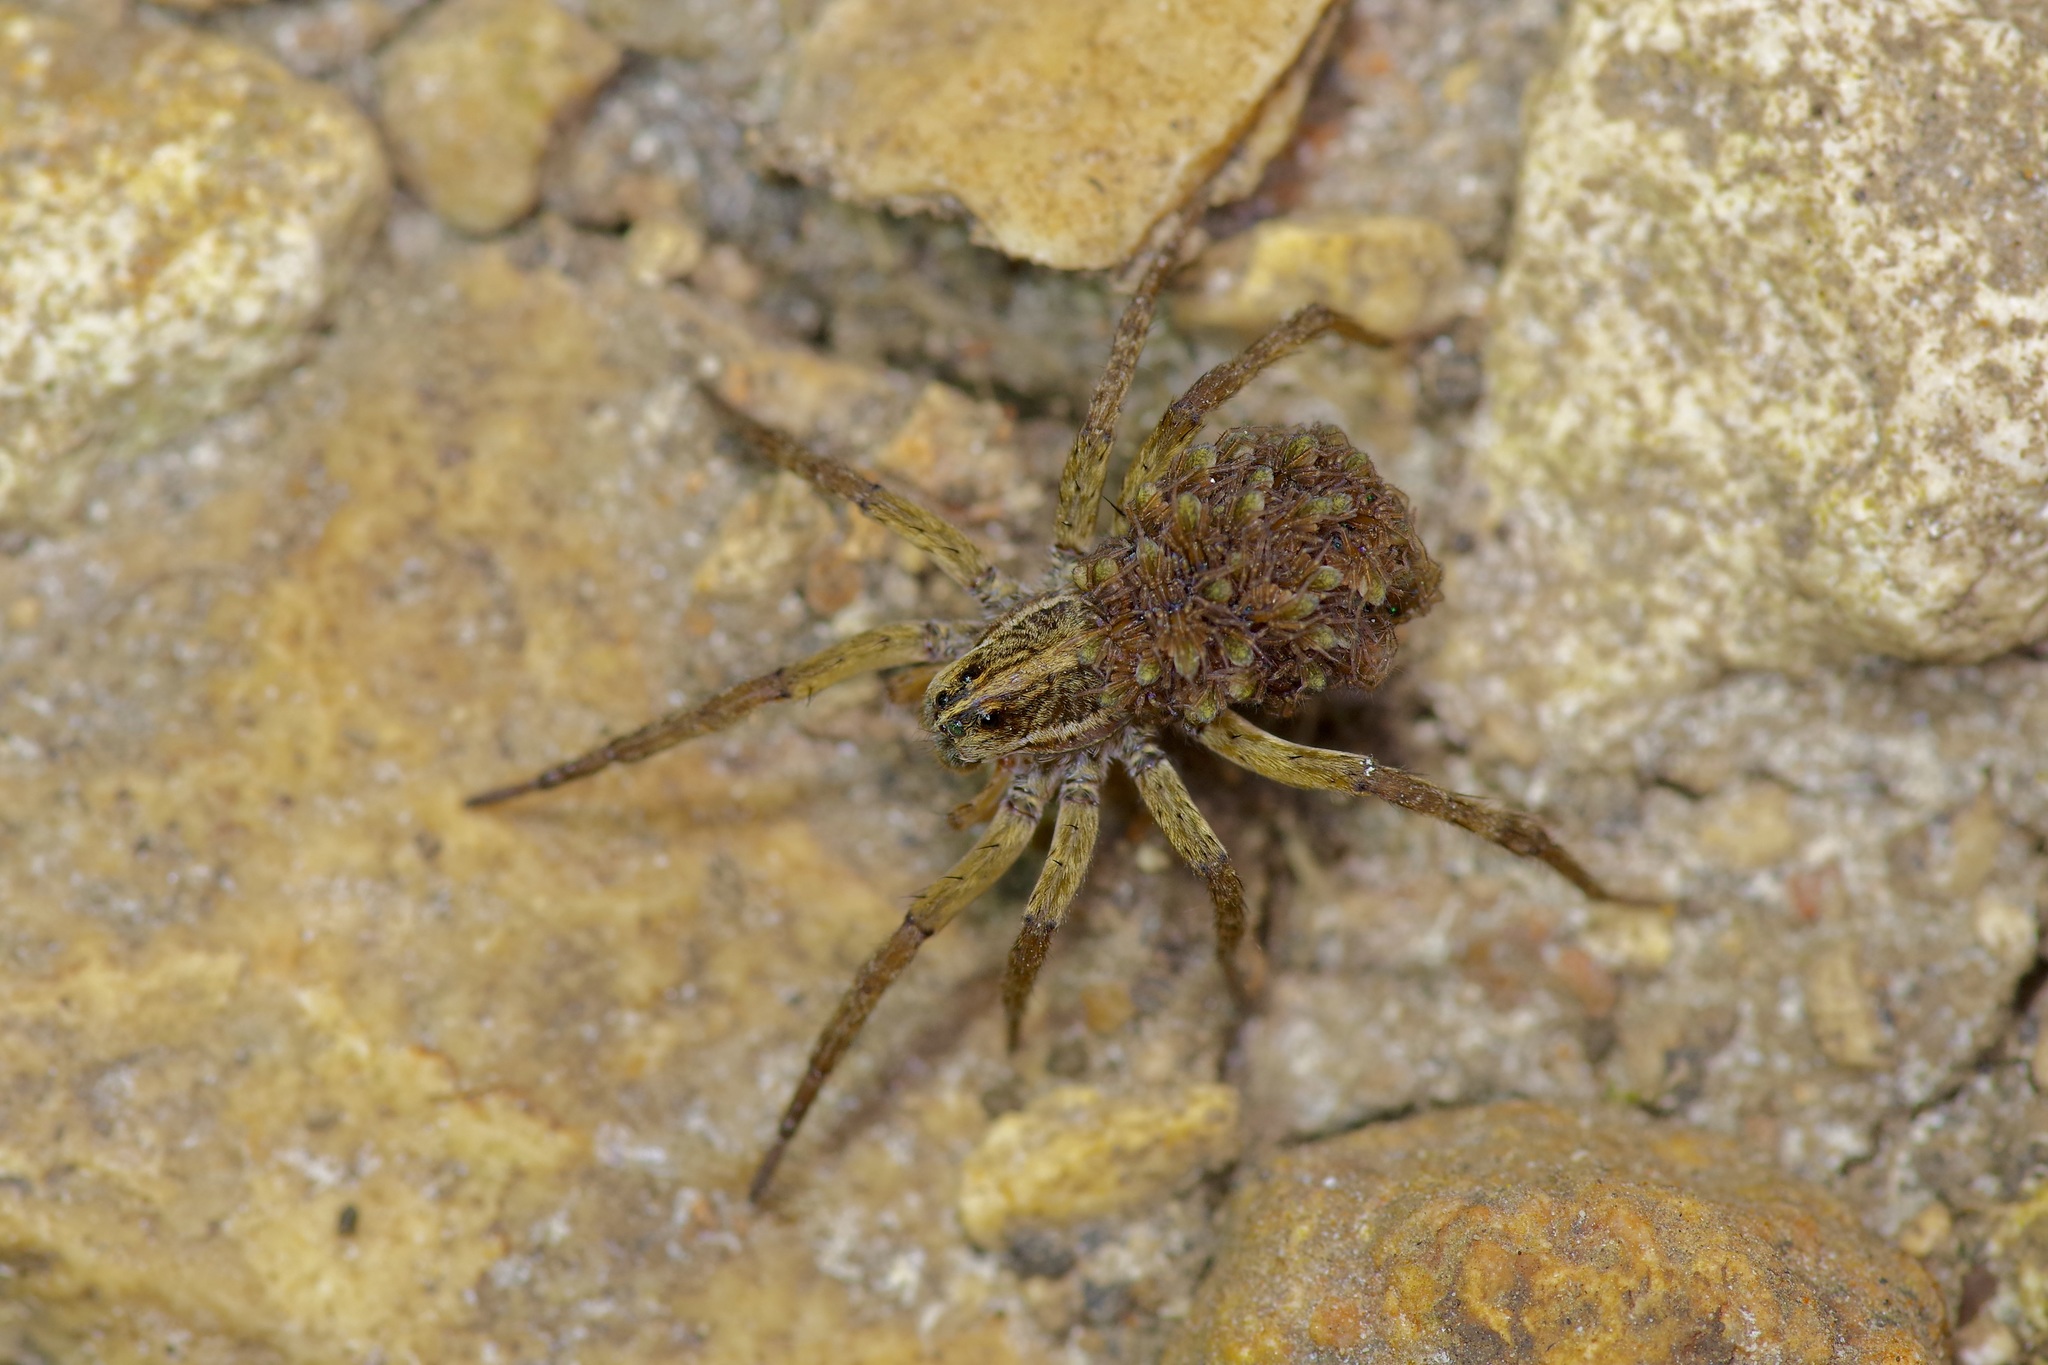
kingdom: Animalia
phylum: Arthropoda
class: Arachnida
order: Araneae
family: Lycosidae
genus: Tigrosa
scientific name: Tigrosa annexa
